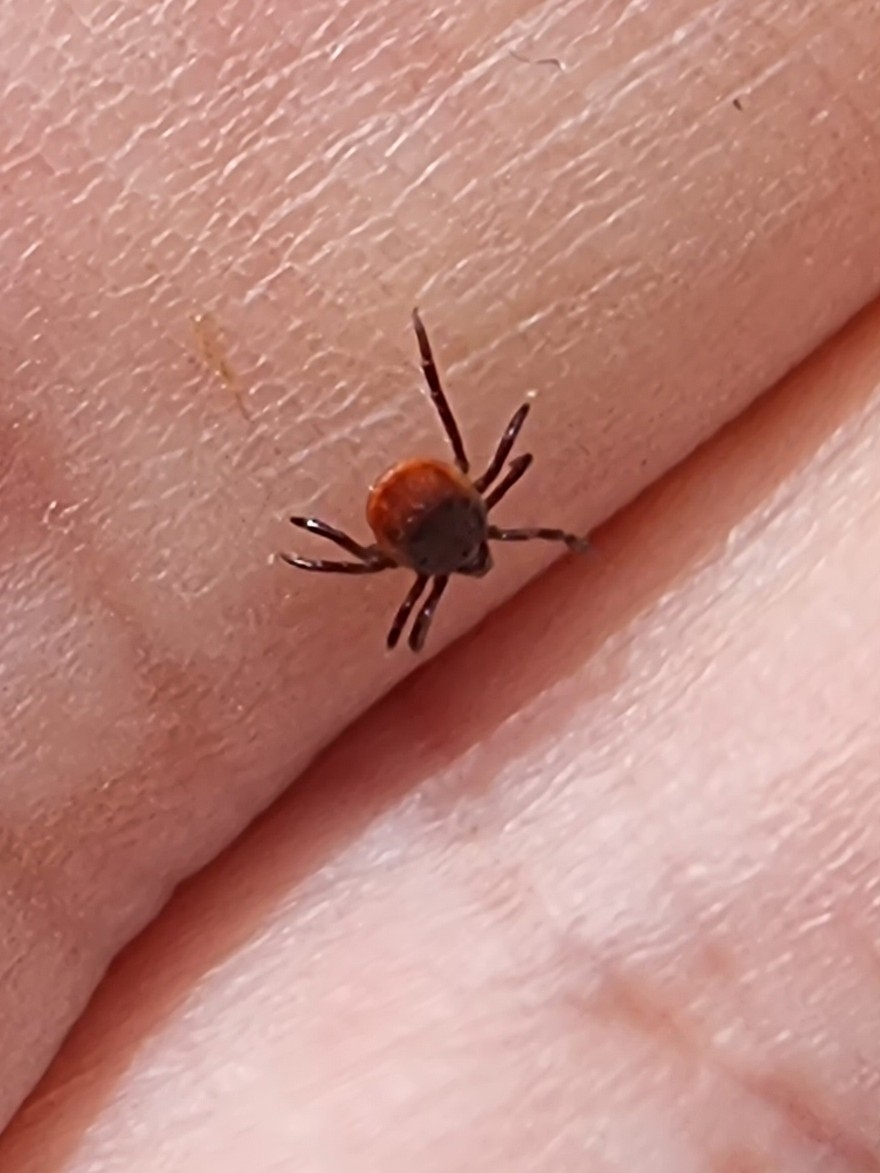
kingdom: Animalia
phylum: Arthropoda
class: Arachnida
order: Ixodida
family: Ixodidae
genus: Ixodes
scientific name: Ixodes ricinus
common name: Castor bean tick
